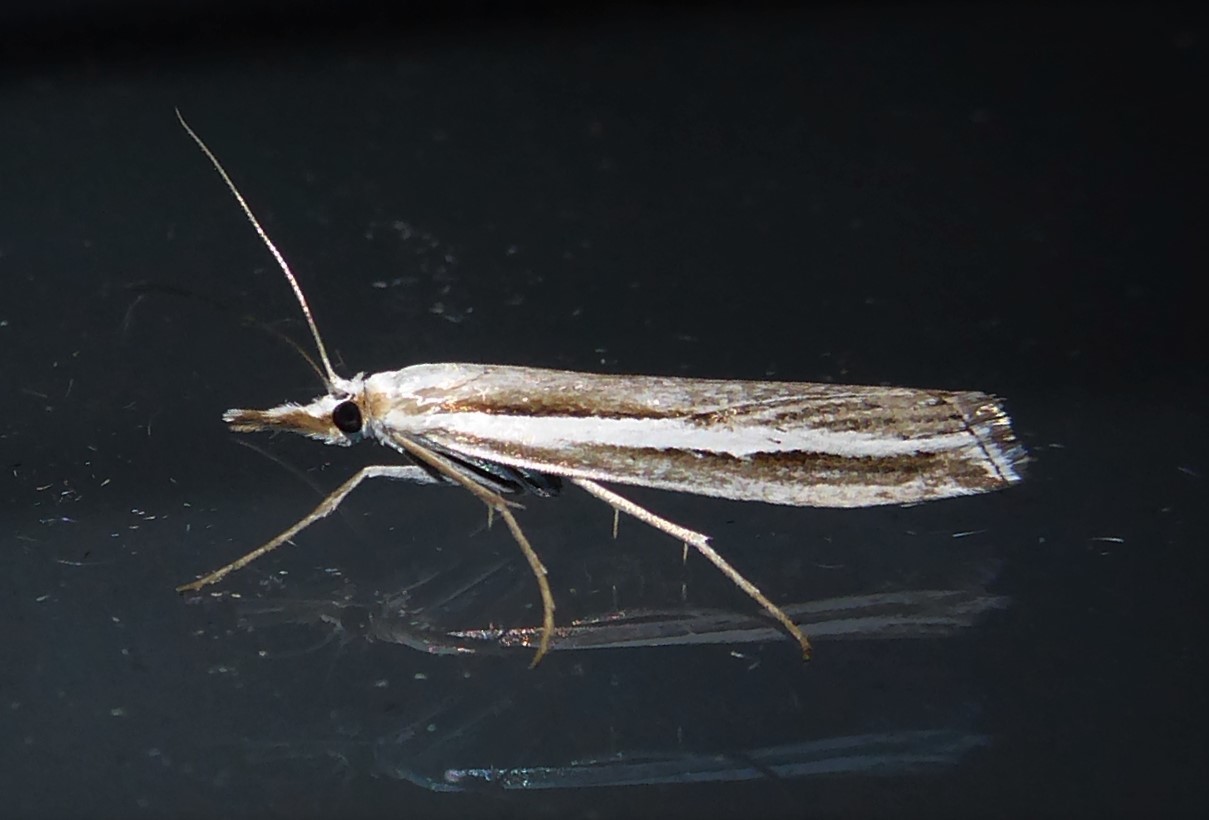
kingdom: Animalia
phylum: Arthropoda
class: Insecta
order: Lepidoptera
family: Crambidae
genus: Orocrambus
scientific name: Orocrambus vittellus
